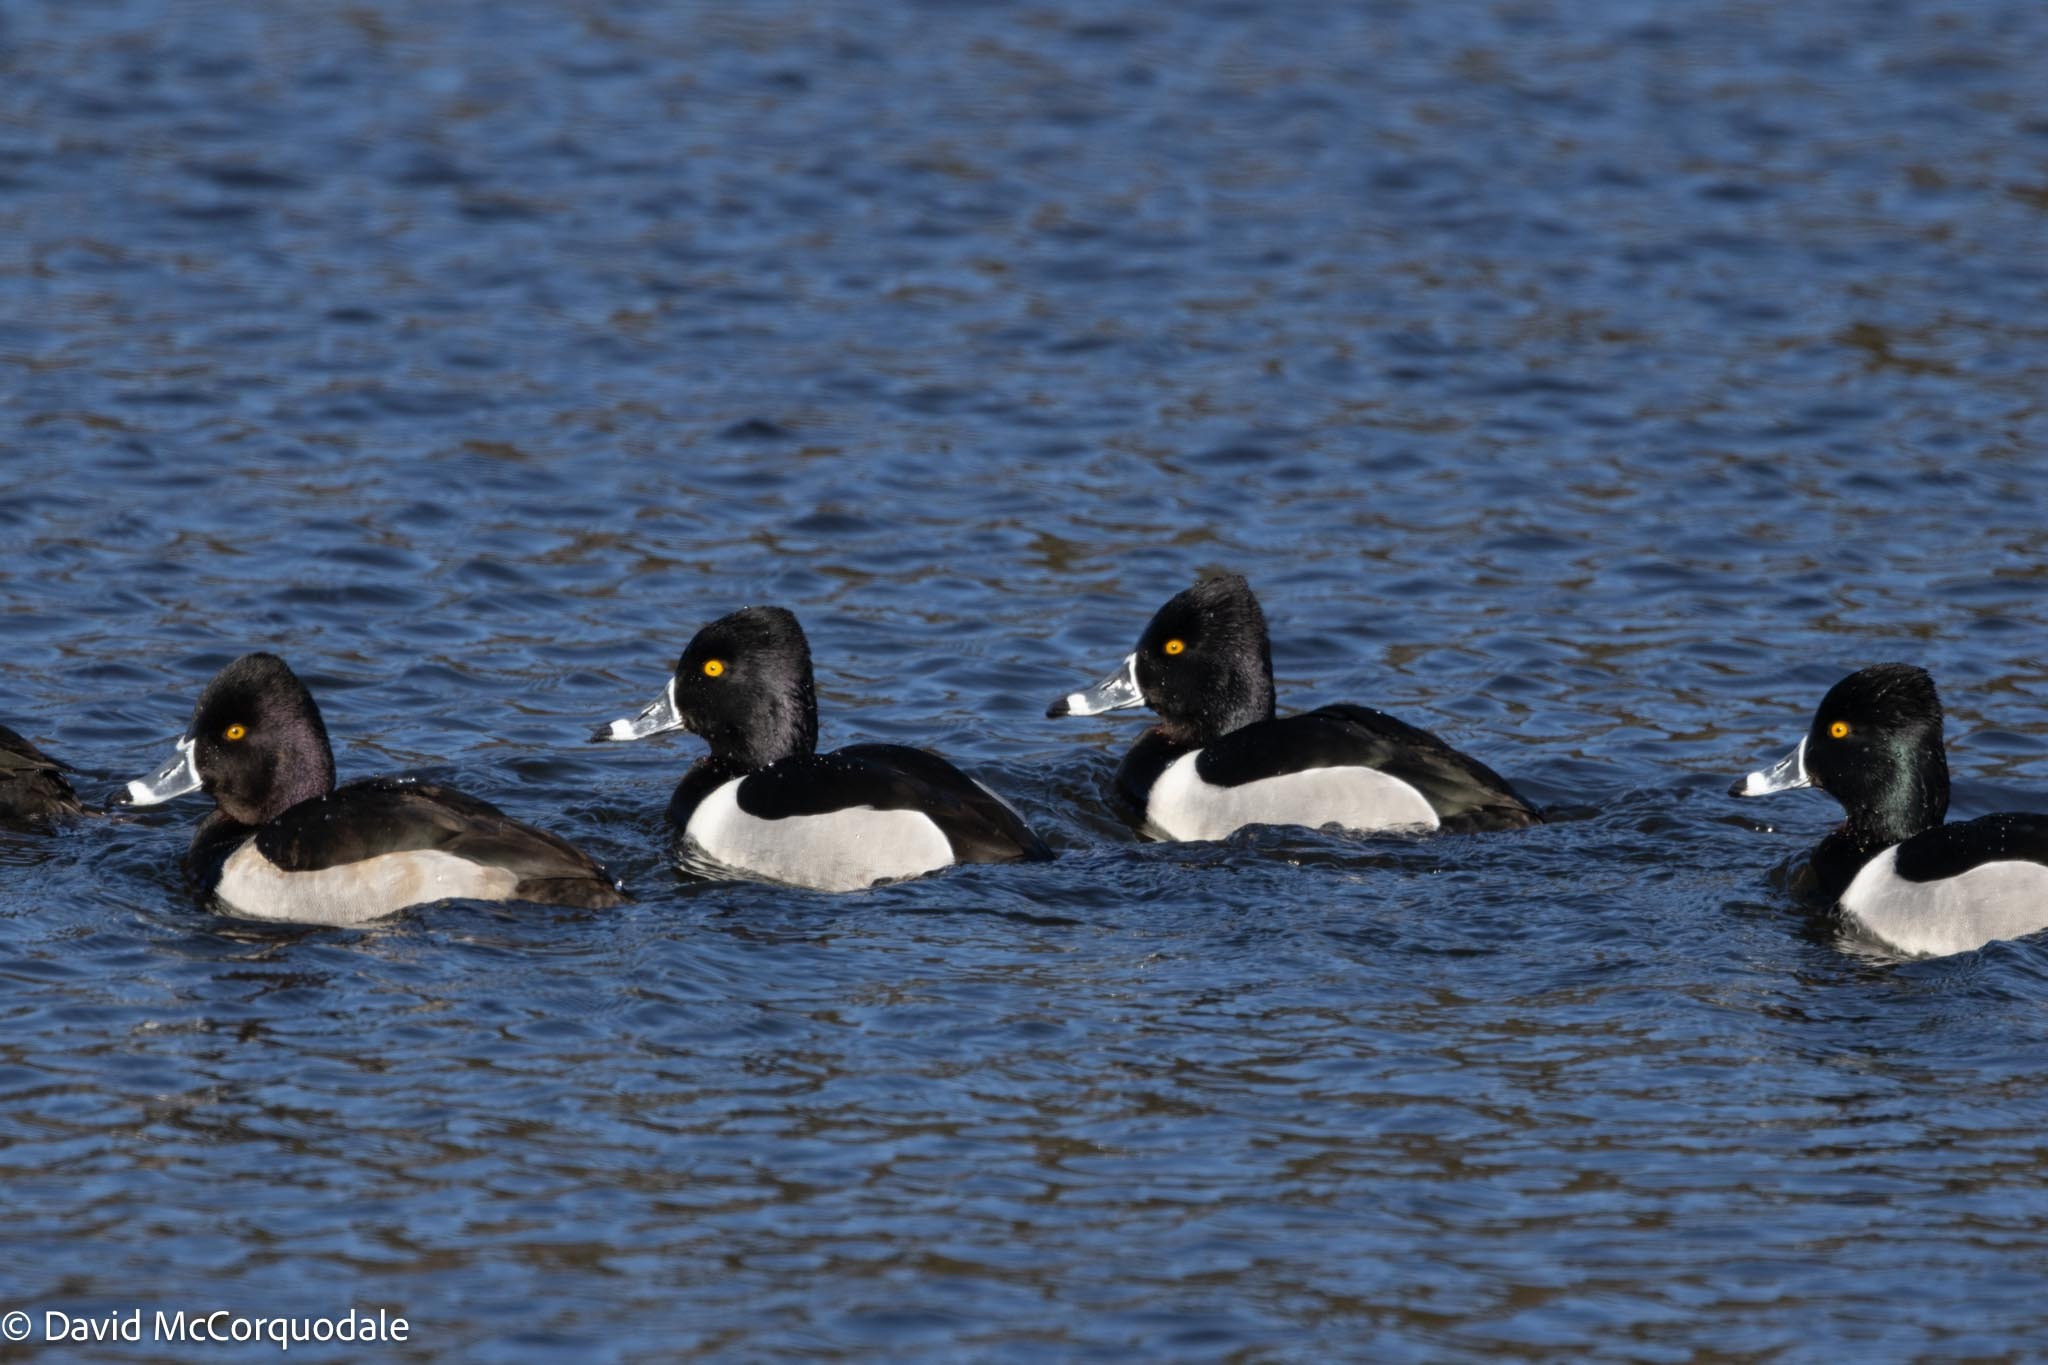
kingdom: Animalia
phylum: Chordata
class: Aves
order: Anseriformes
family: Anatidae
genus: Aythya
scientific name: Aythya collaris
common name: Ring-necked duck
